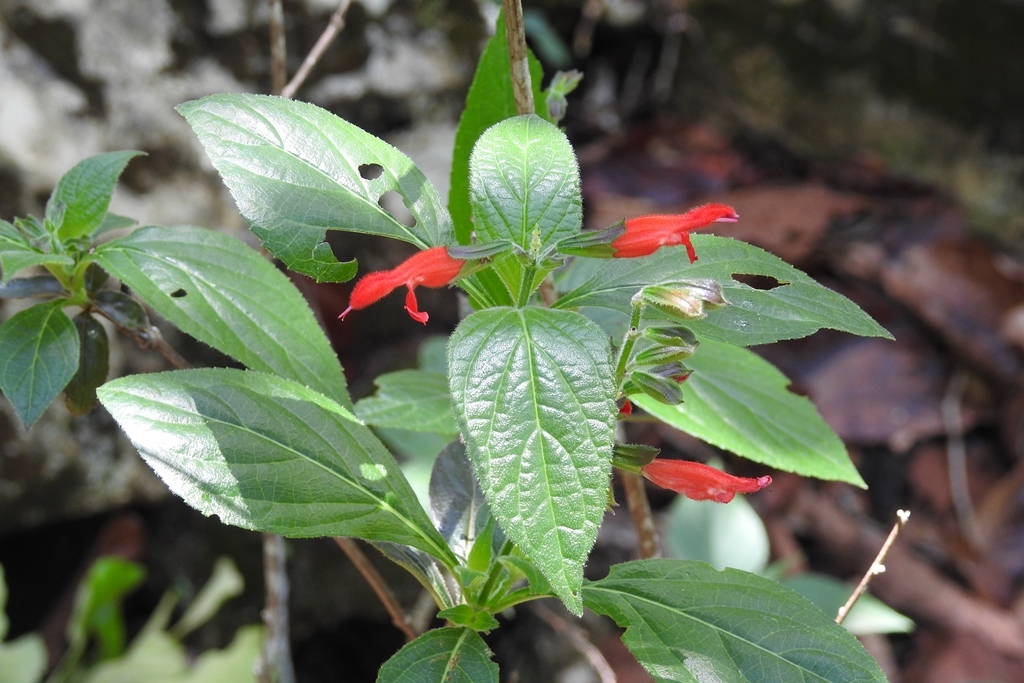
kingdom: Plantae
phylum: Tracheophyta
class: Magnoliopsida
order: Lamiales
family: Lamiaceae
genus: Salvia
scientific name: Salvia miniata
